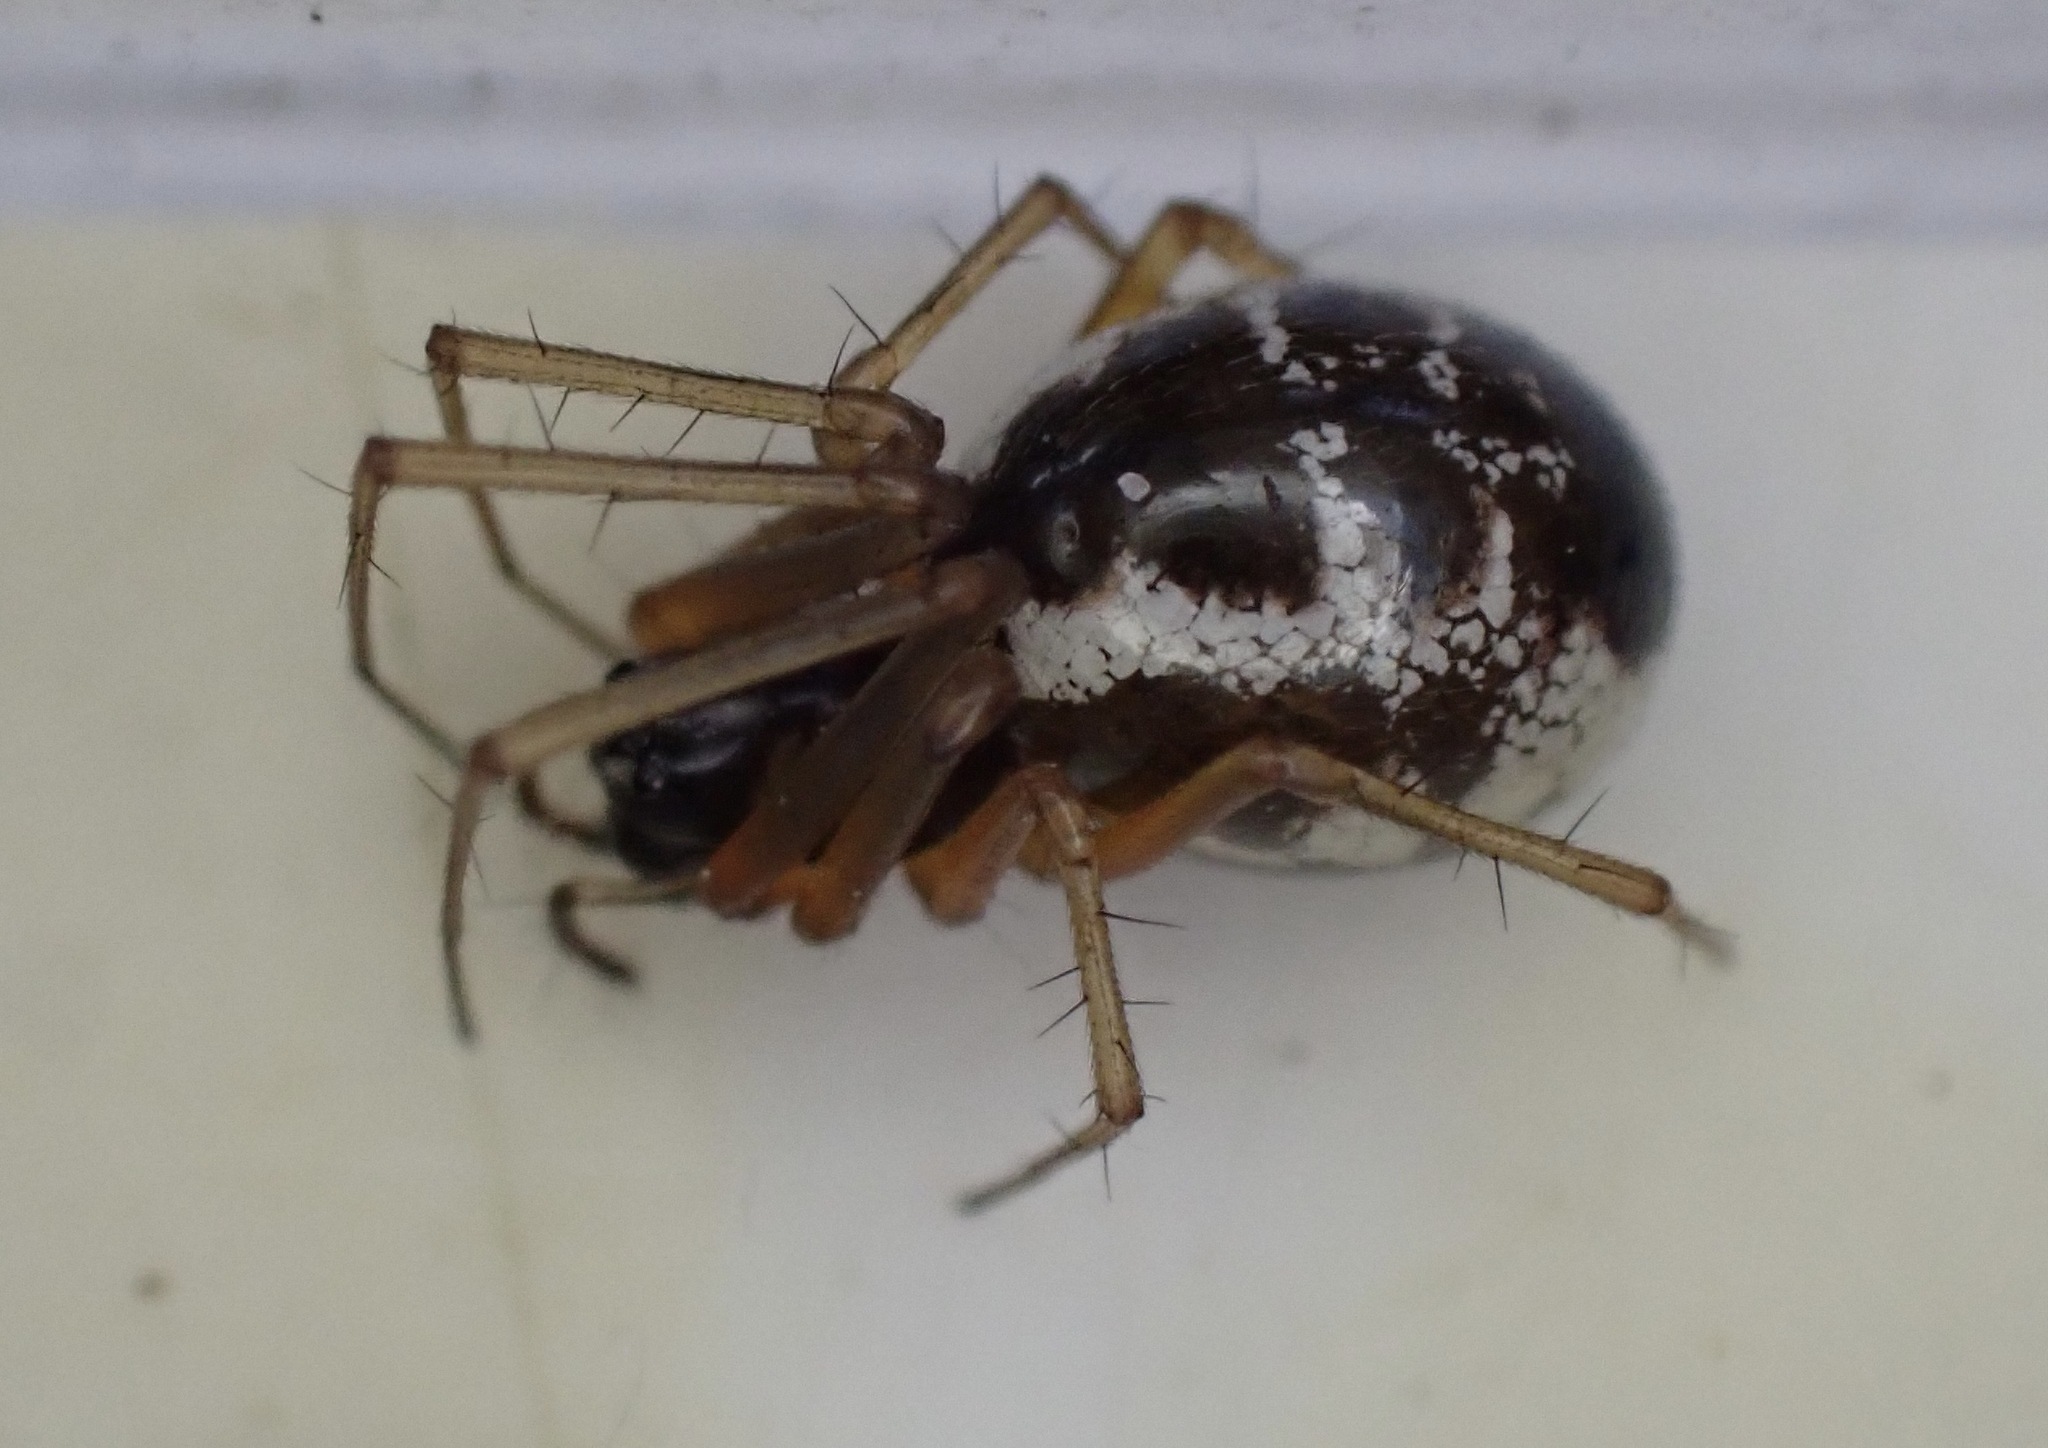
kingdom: Animalia
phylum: Arthropoda
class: Arachnida
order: Araneae
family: Linyphiidae
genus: Linyphia
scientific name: Linyphia hortensis
